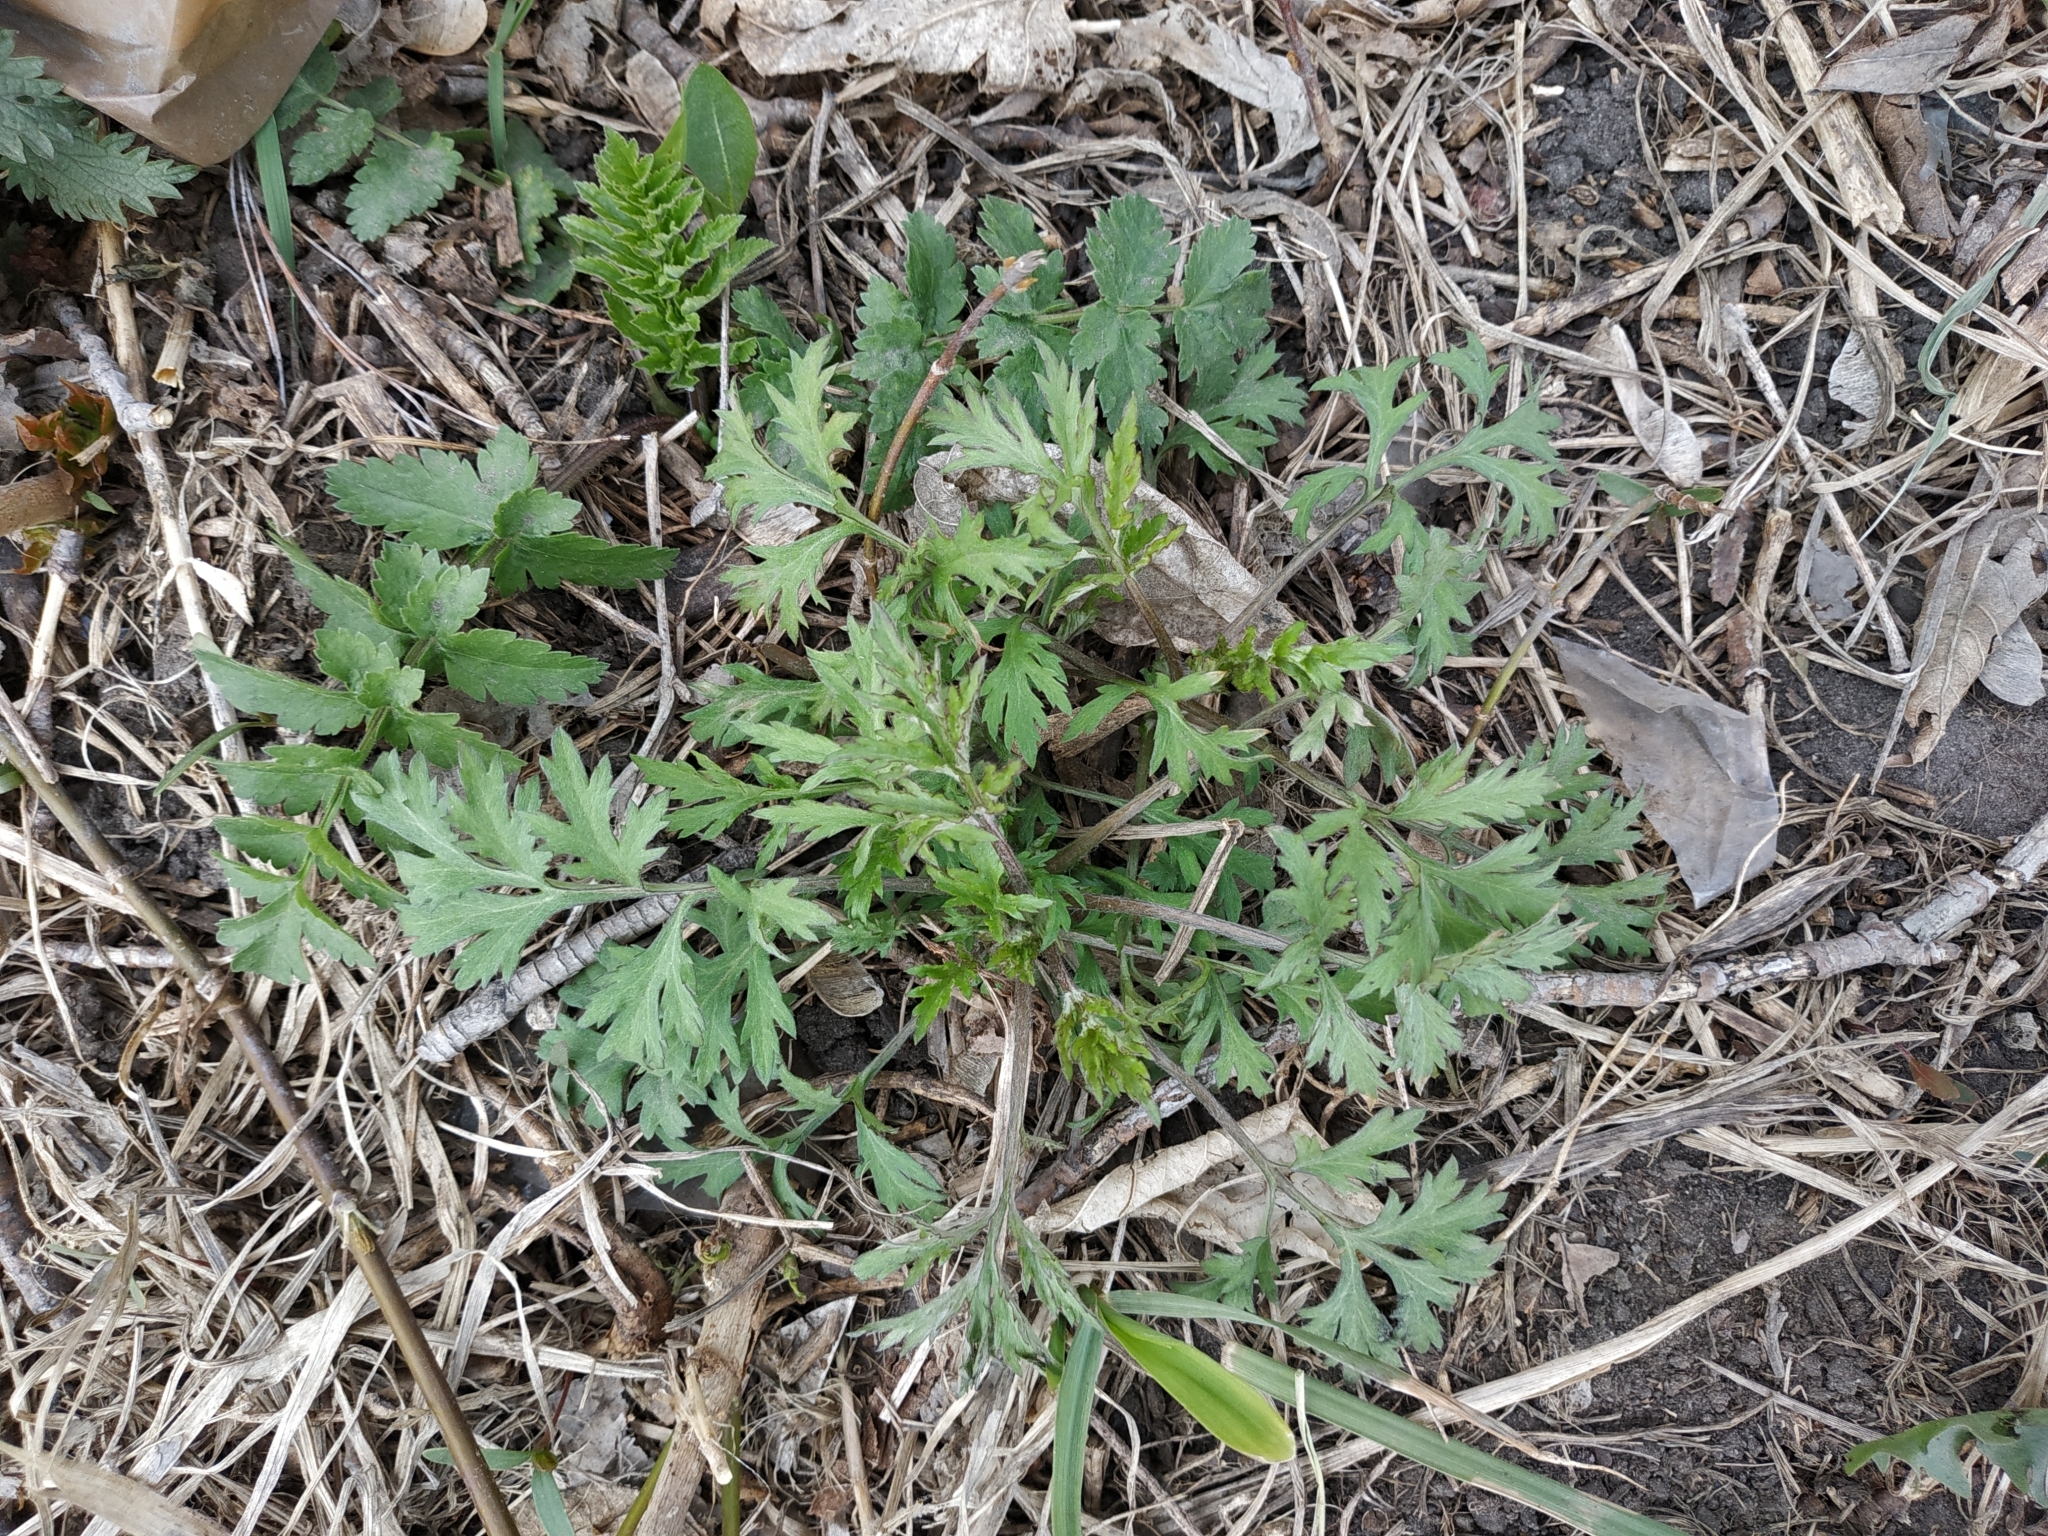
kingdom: Plantae
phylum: Tracheophyta
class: Magnoliopsida
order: Asterales
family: Asteraceae
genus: Artemisia
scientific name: Artemisia vulgaris
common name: Mugwort
